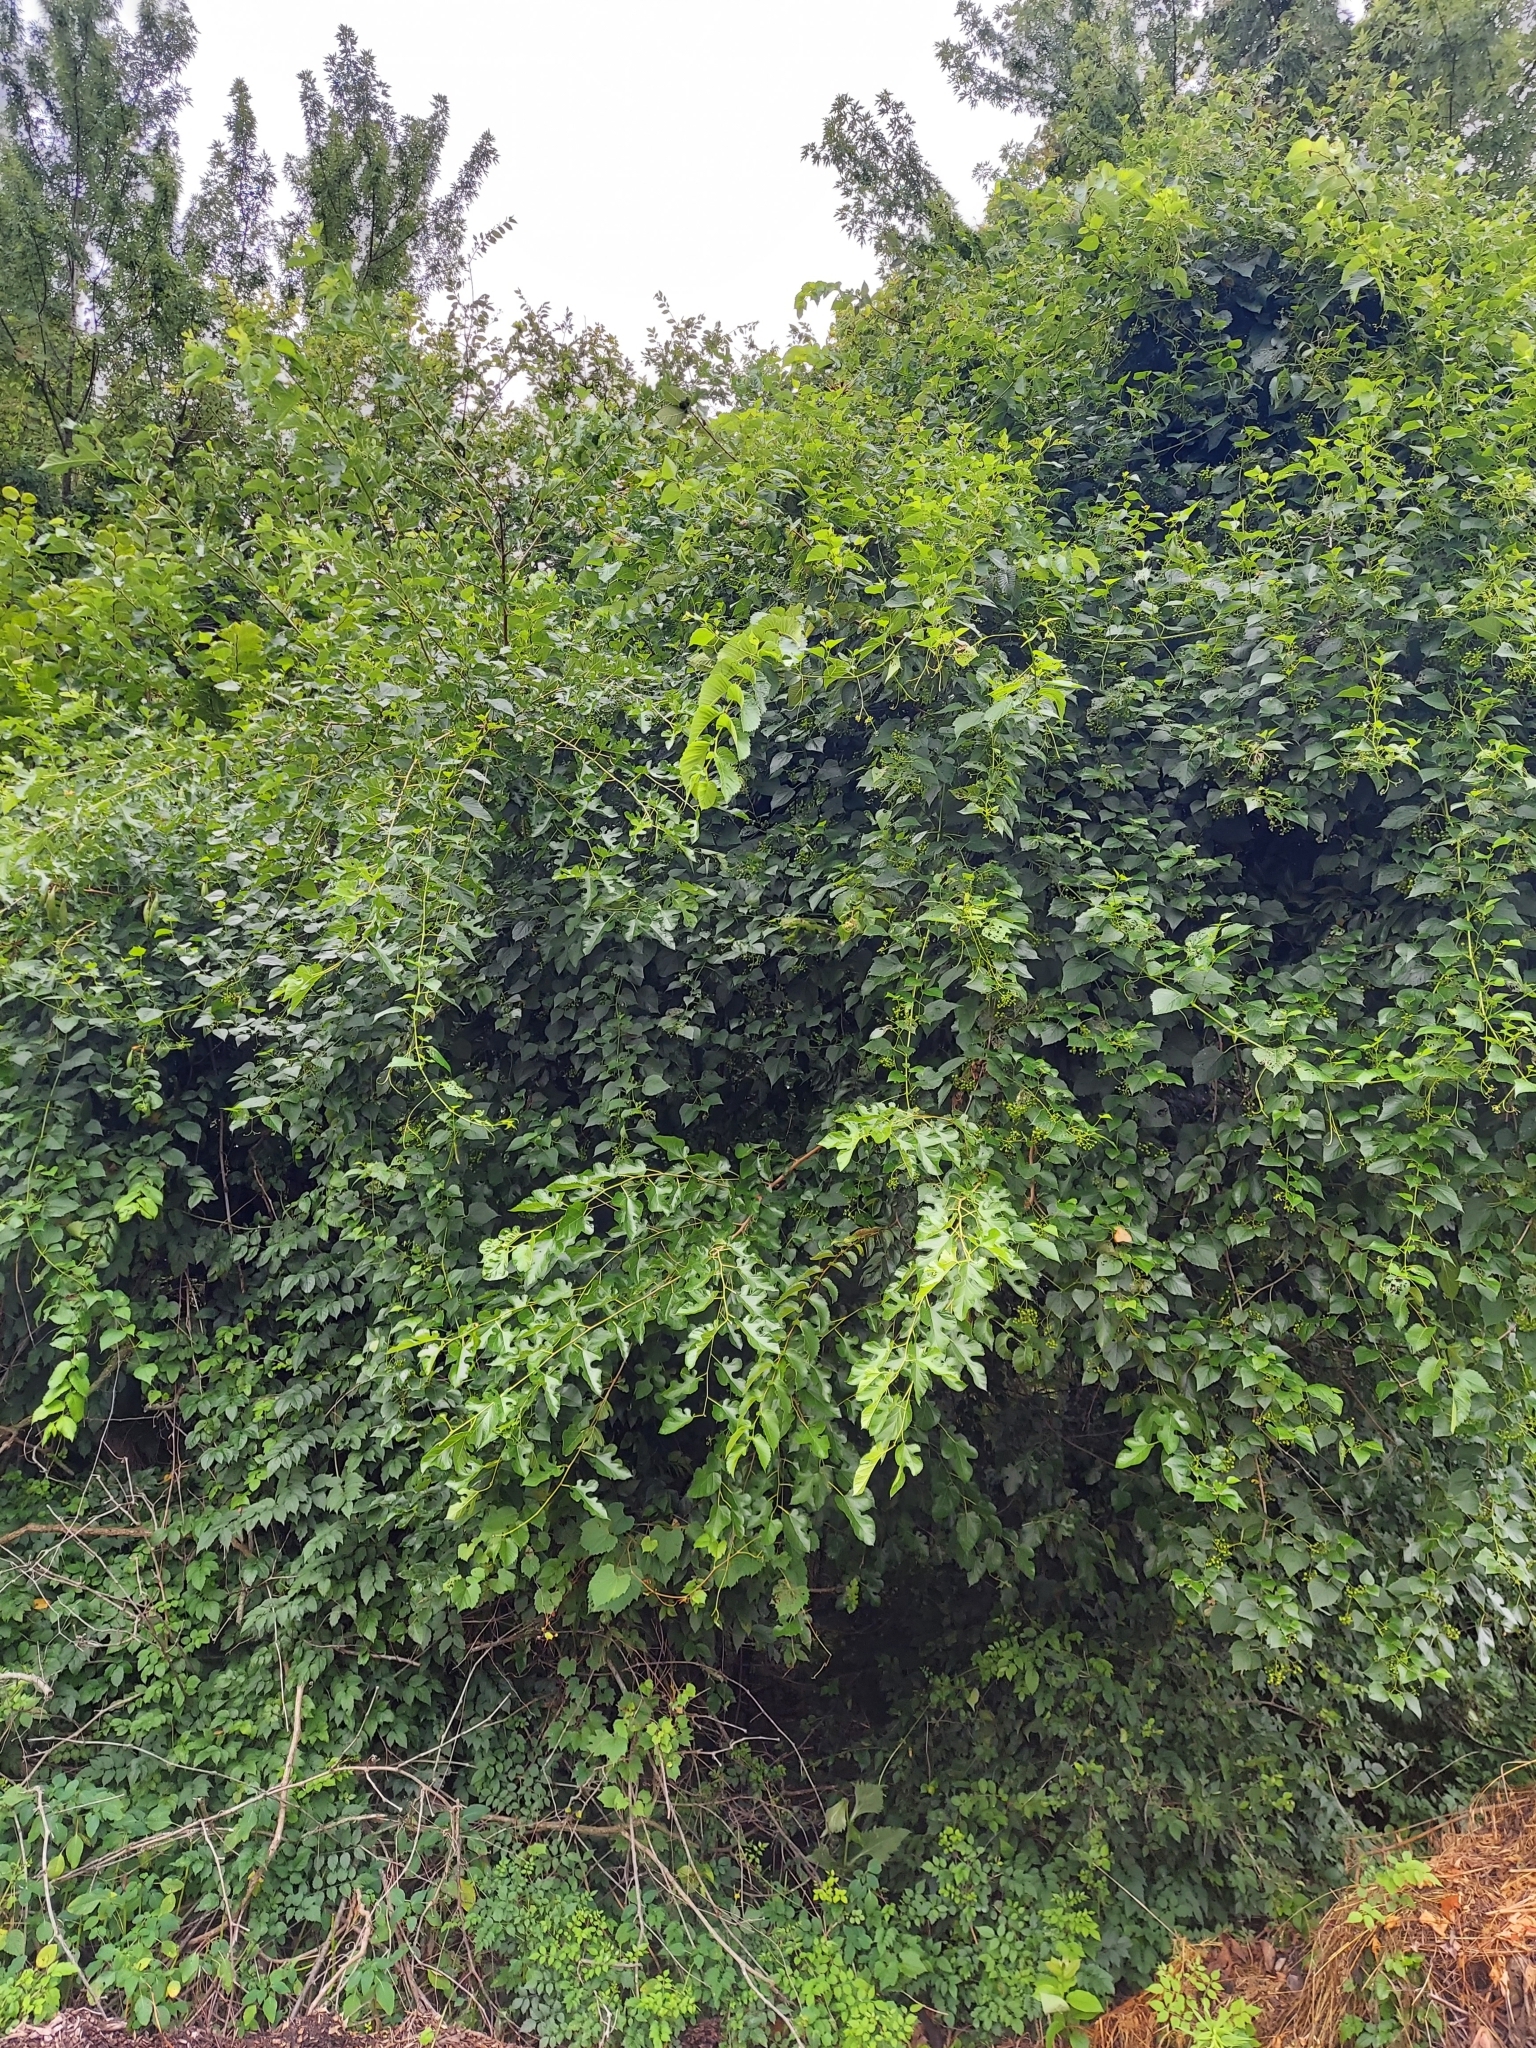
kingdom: Plantae
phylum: Tracheophyta
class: Magnoliopsida
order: Rosales
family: Moraceae
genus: Morus
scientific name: Morus alba
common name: White mulberry
